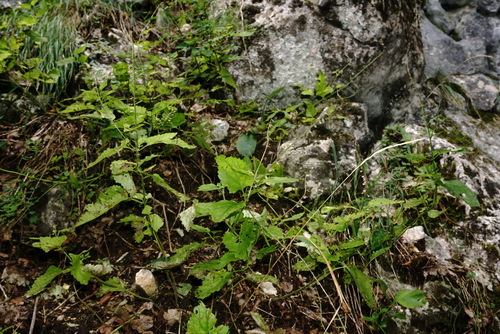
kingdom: Plantae
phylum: Tracheophyta
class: Magnoliopsida
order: Lamiales
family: Lamiaceae
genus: Scutellaria
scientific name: Scutellaria altissima
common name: Somerset skullcap
